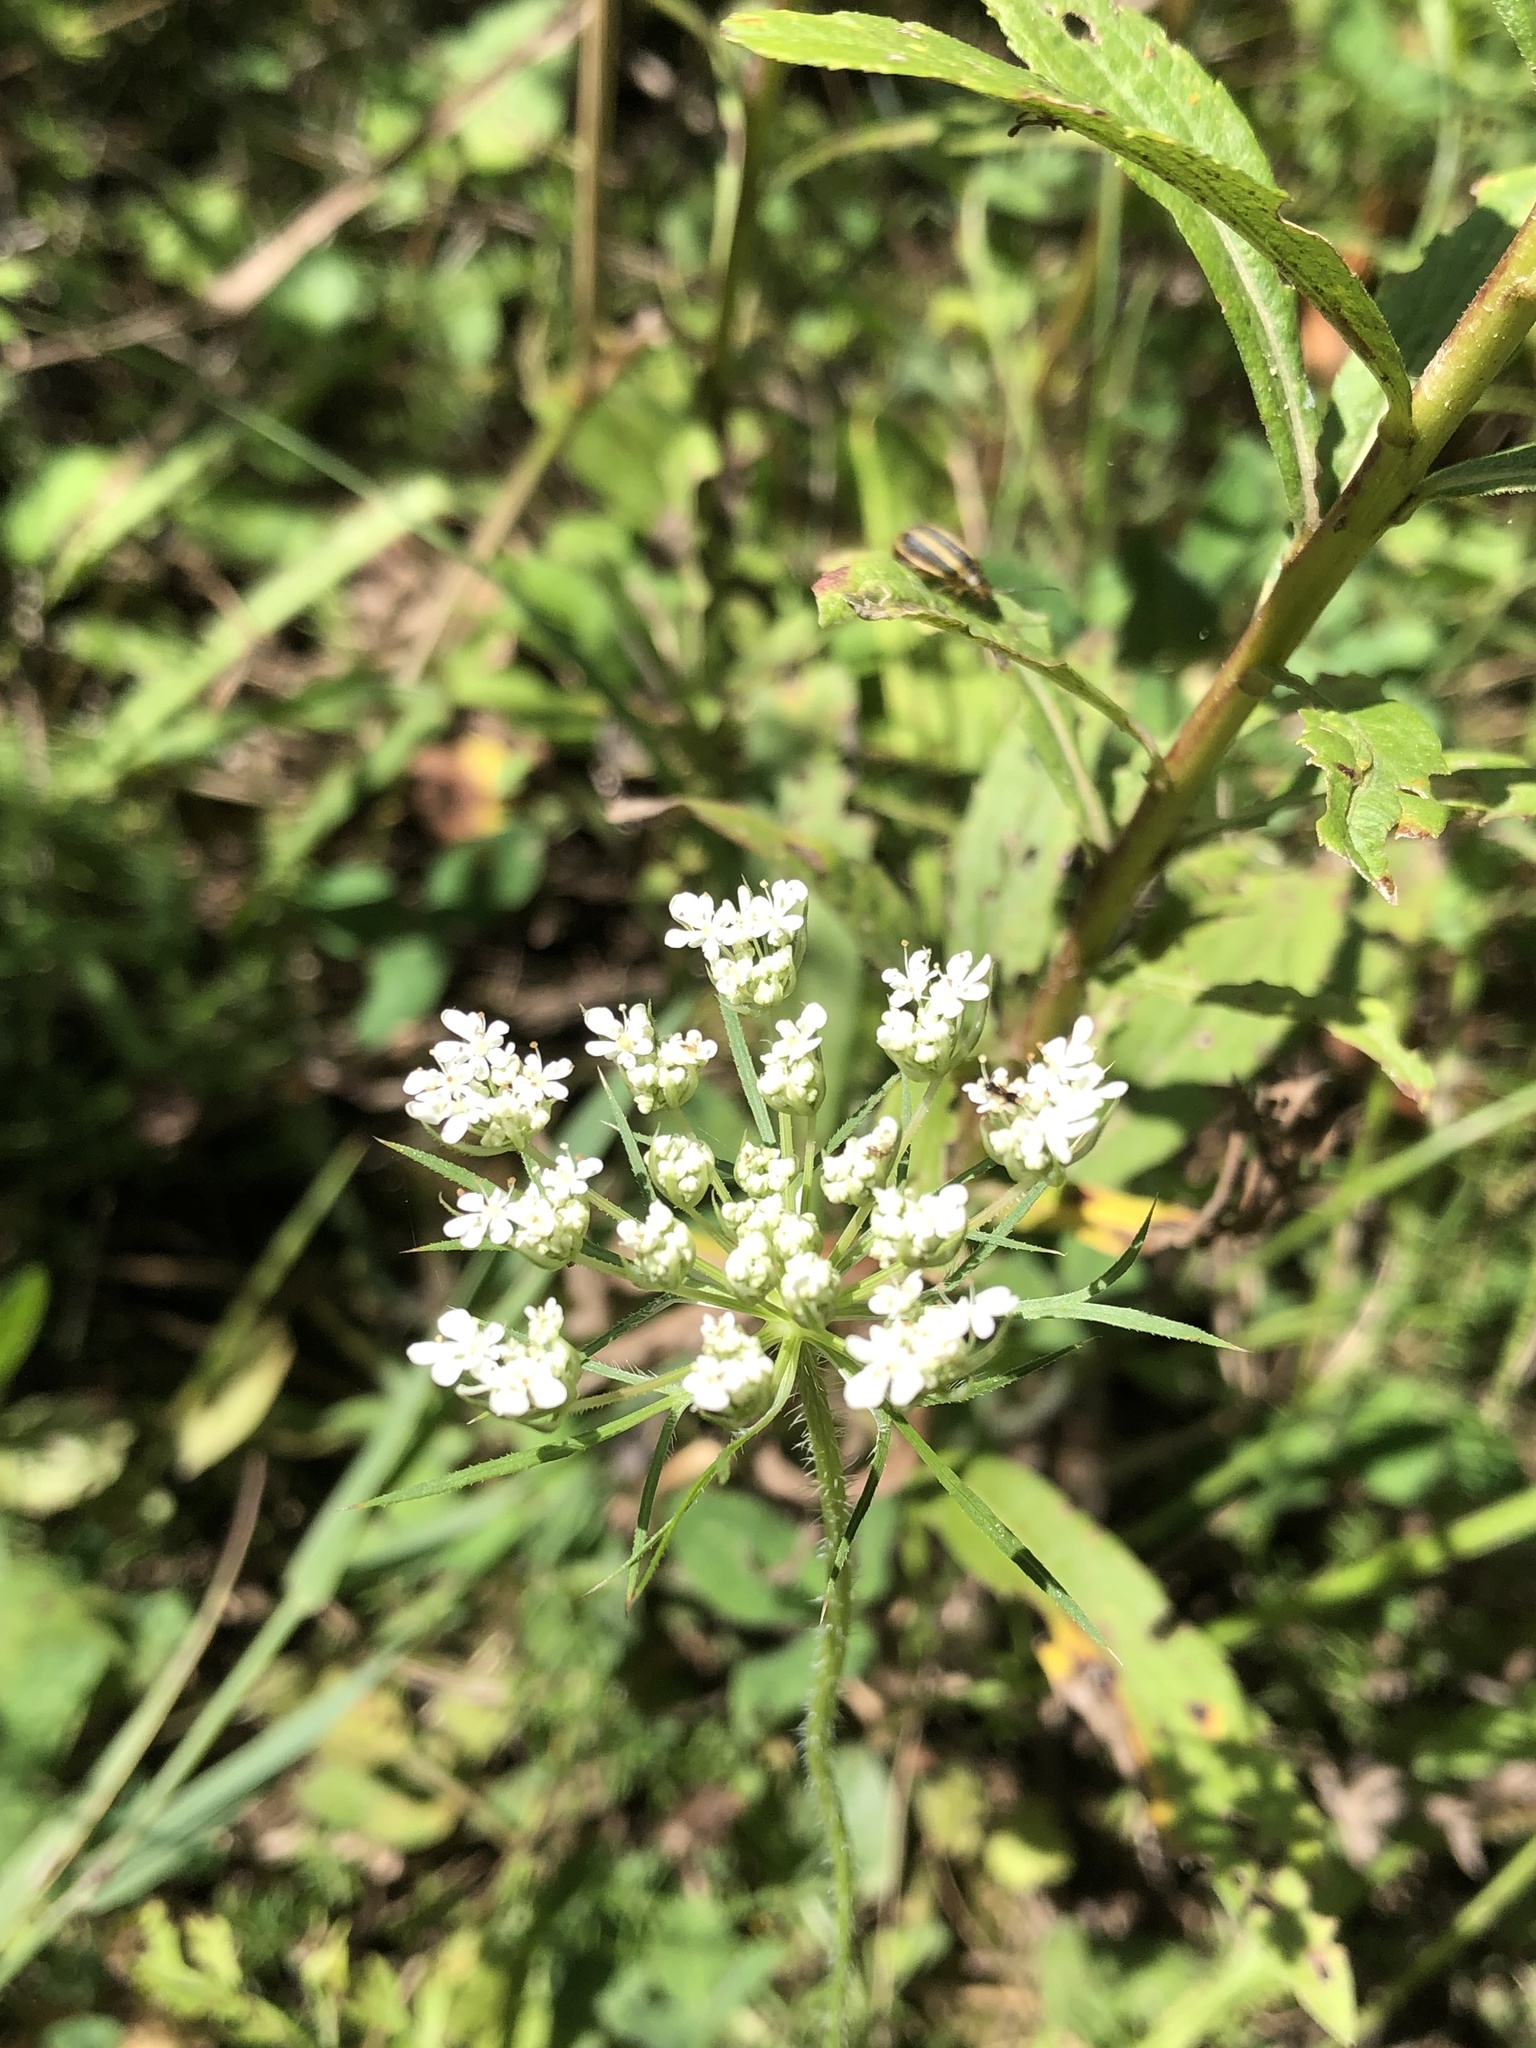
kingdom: Plantae
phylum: Tracheophyta
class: Magnoliopsida
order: Apiales
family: Apiaceae
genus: Daucus
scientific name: Daucus carota
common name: Wild carrot
